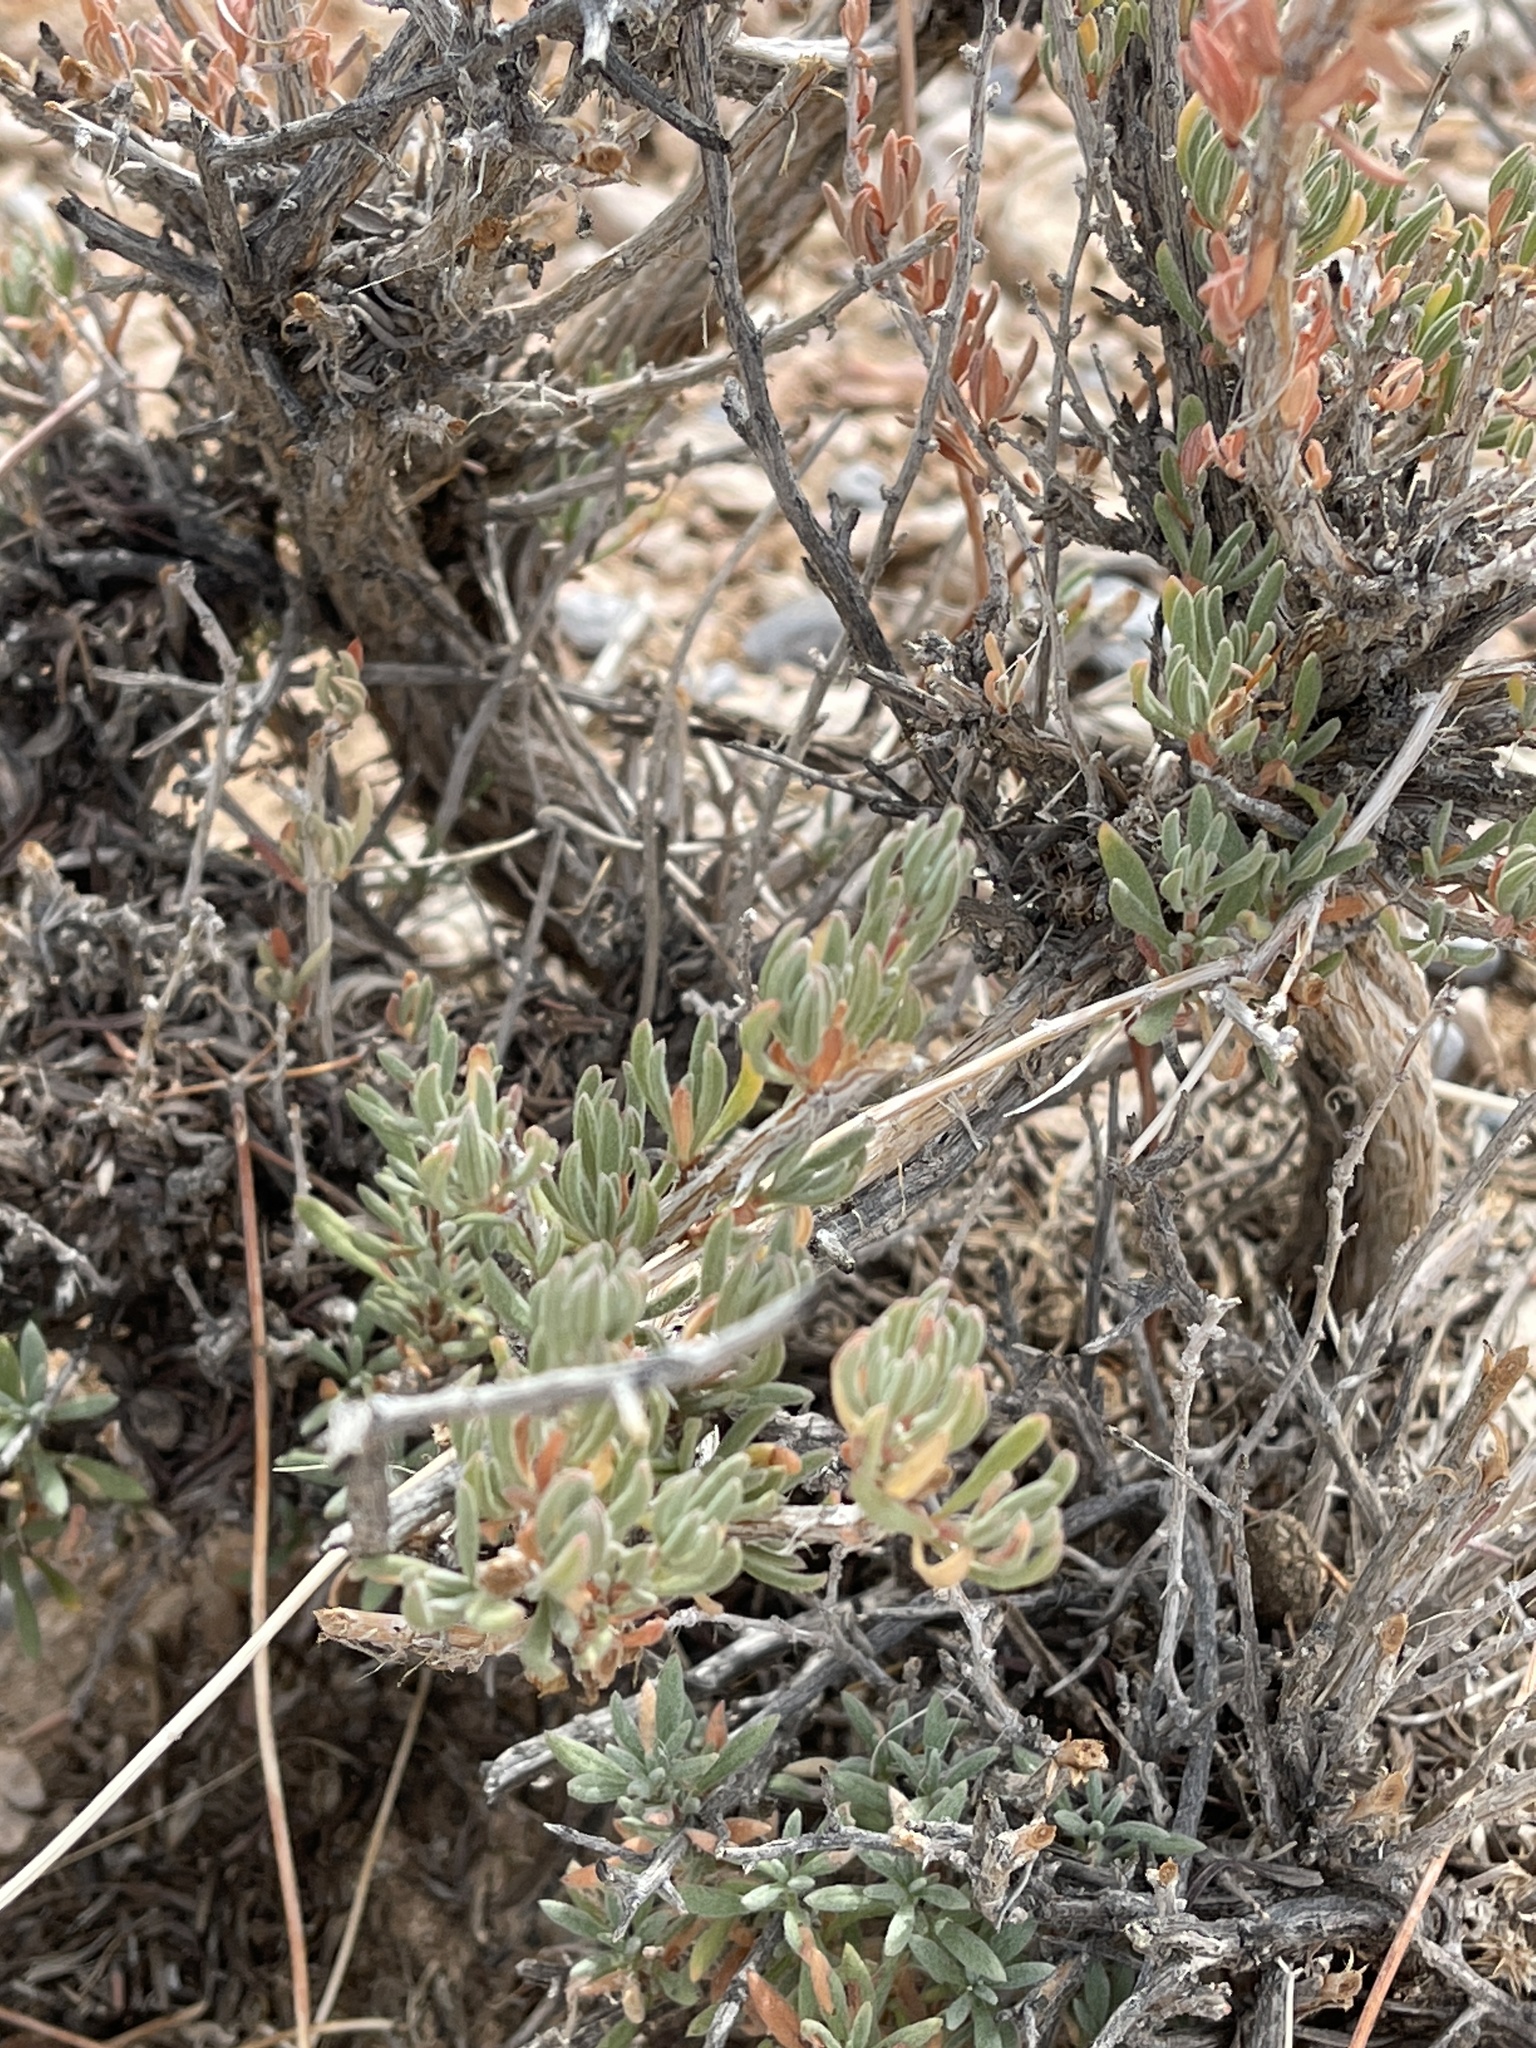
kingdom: Plantae
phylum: Tracheophyta
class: Magnoliopsida
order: Caryophyllales
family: Polygonaceae
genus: Eriogonum
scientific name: Eriogonum fasciculatum
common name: California wild buckwheat
